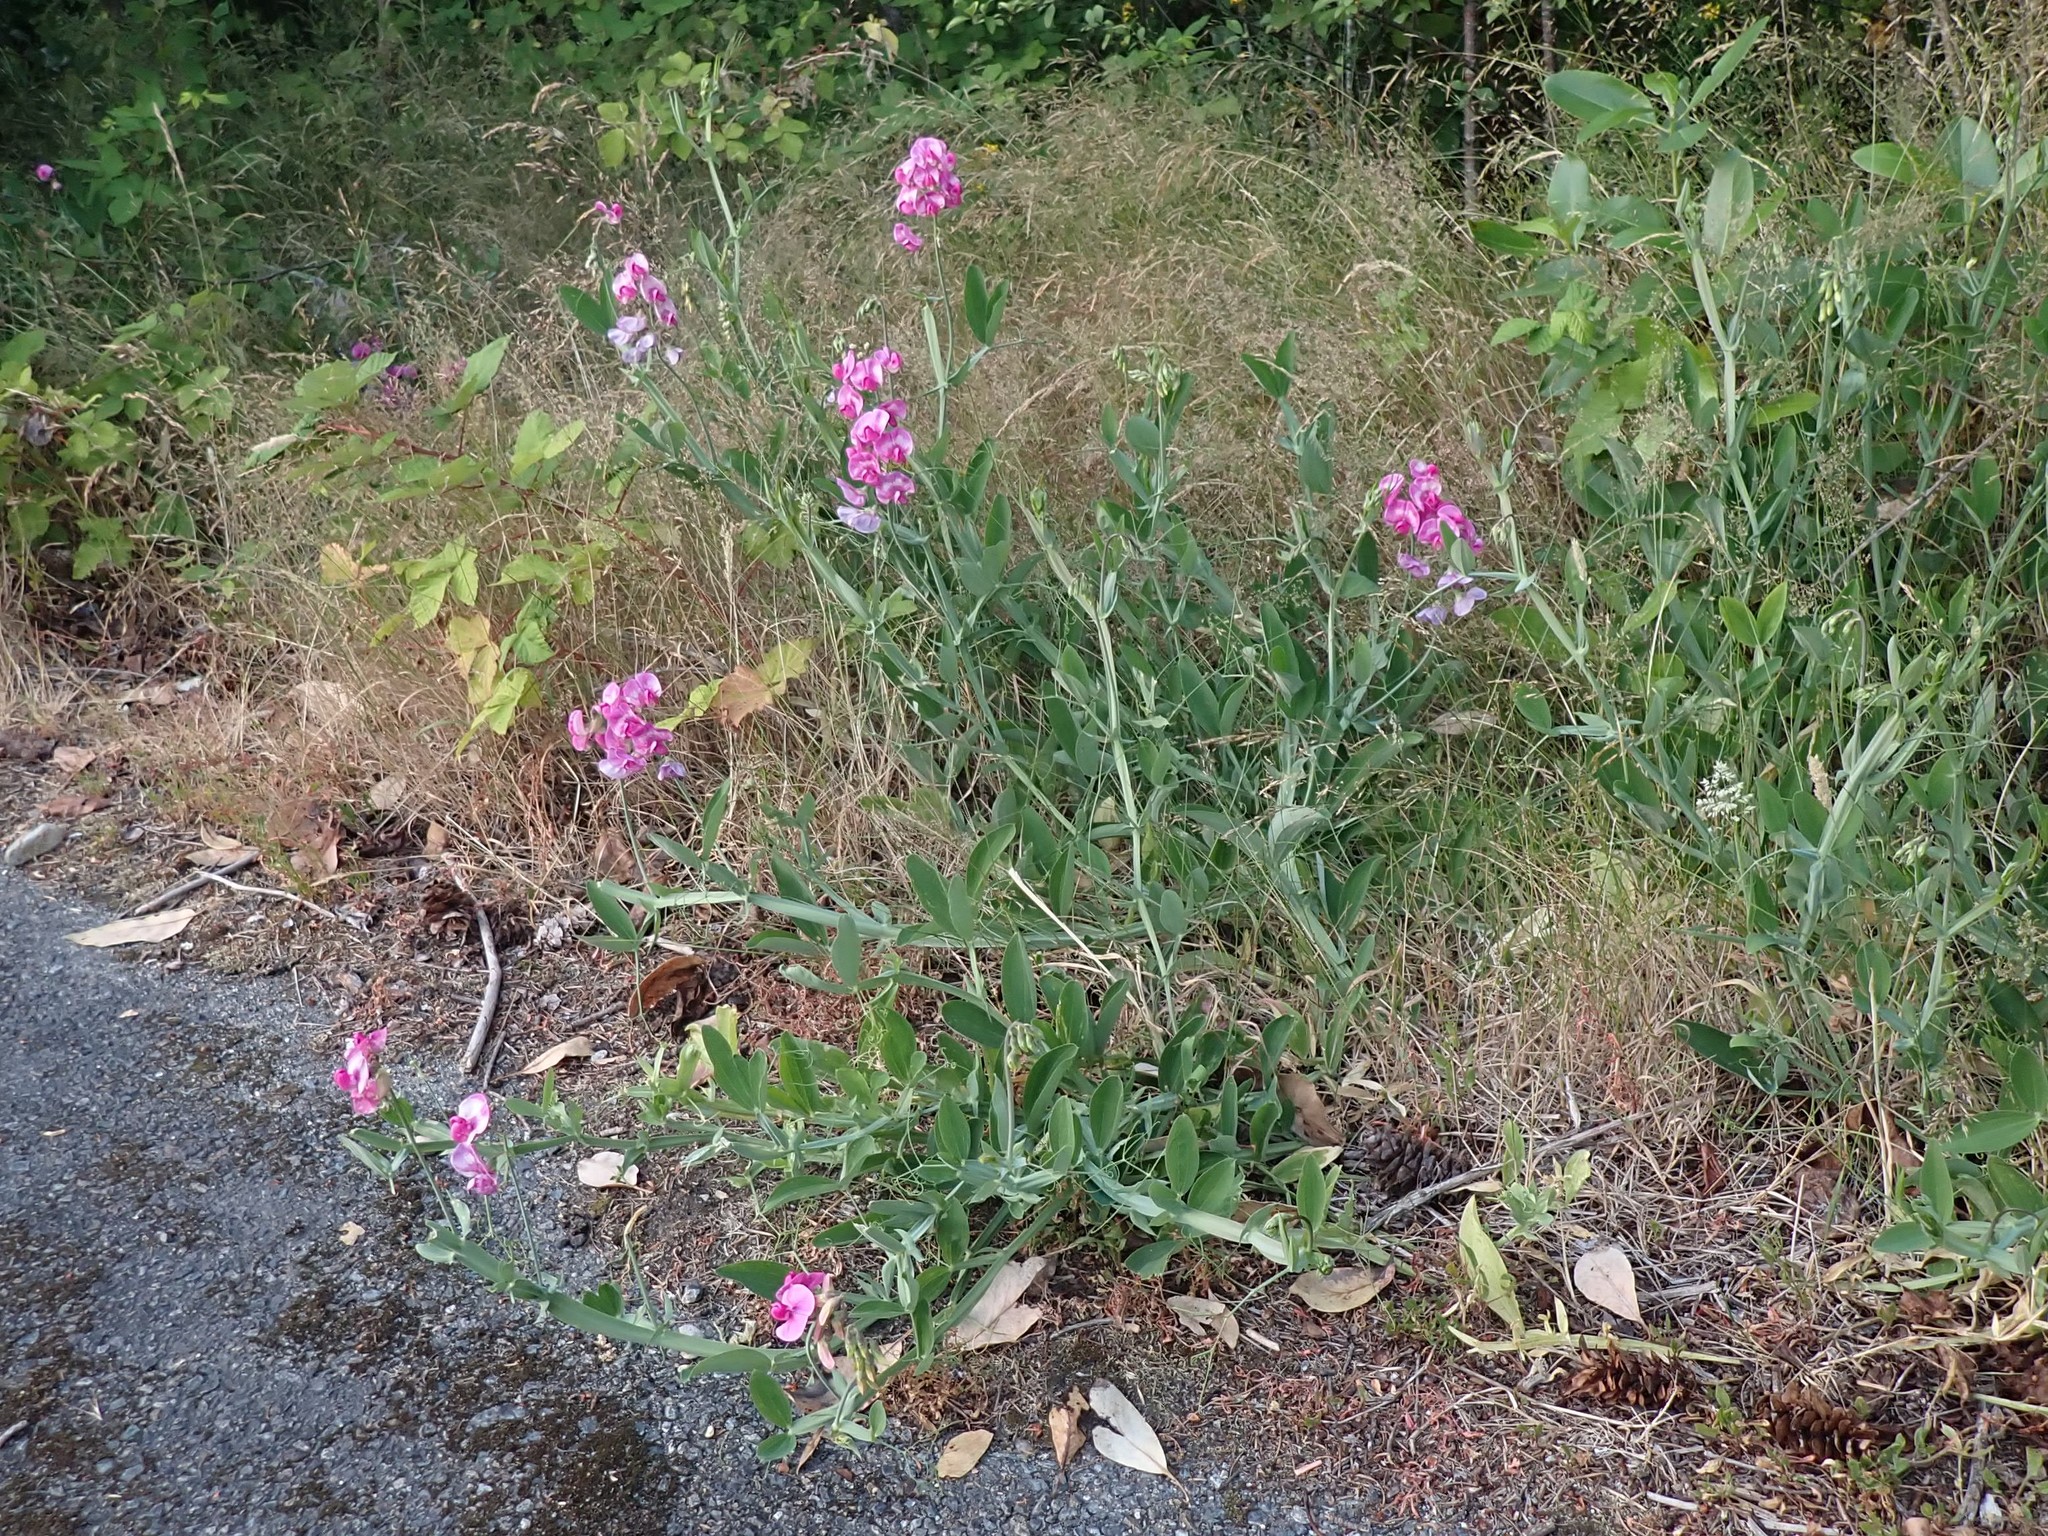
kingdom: Plantae
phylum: Tracheophyta
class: Magnoliopsida
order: Fabales
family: Fabaceae
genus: Lathyrus
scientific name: Lathyrus latifolius
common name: Perennial pea
